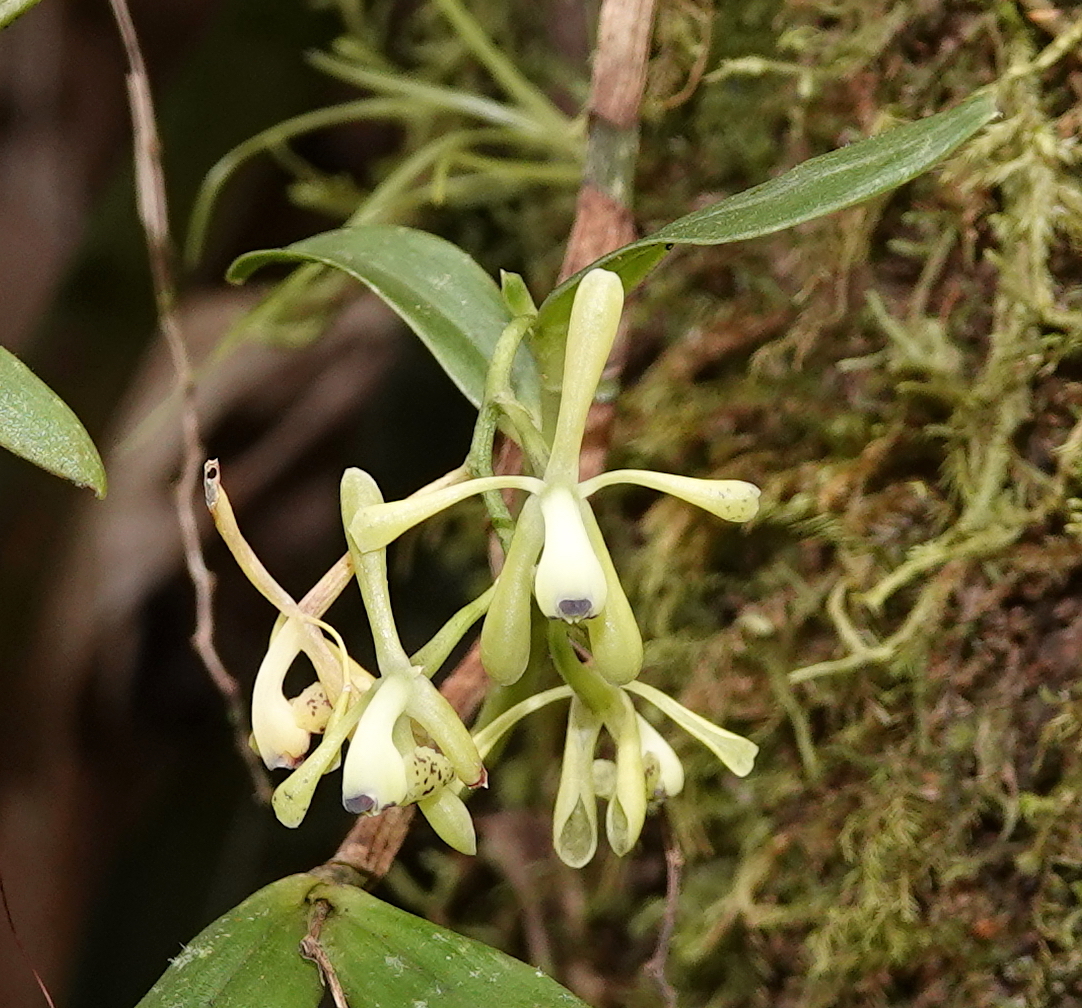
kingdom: Plantae
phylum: Tracheophyta
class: Liliopsida
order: Asparagales
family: Orchidaceae
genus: Epidendrum
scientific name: Epidendrum erosum
